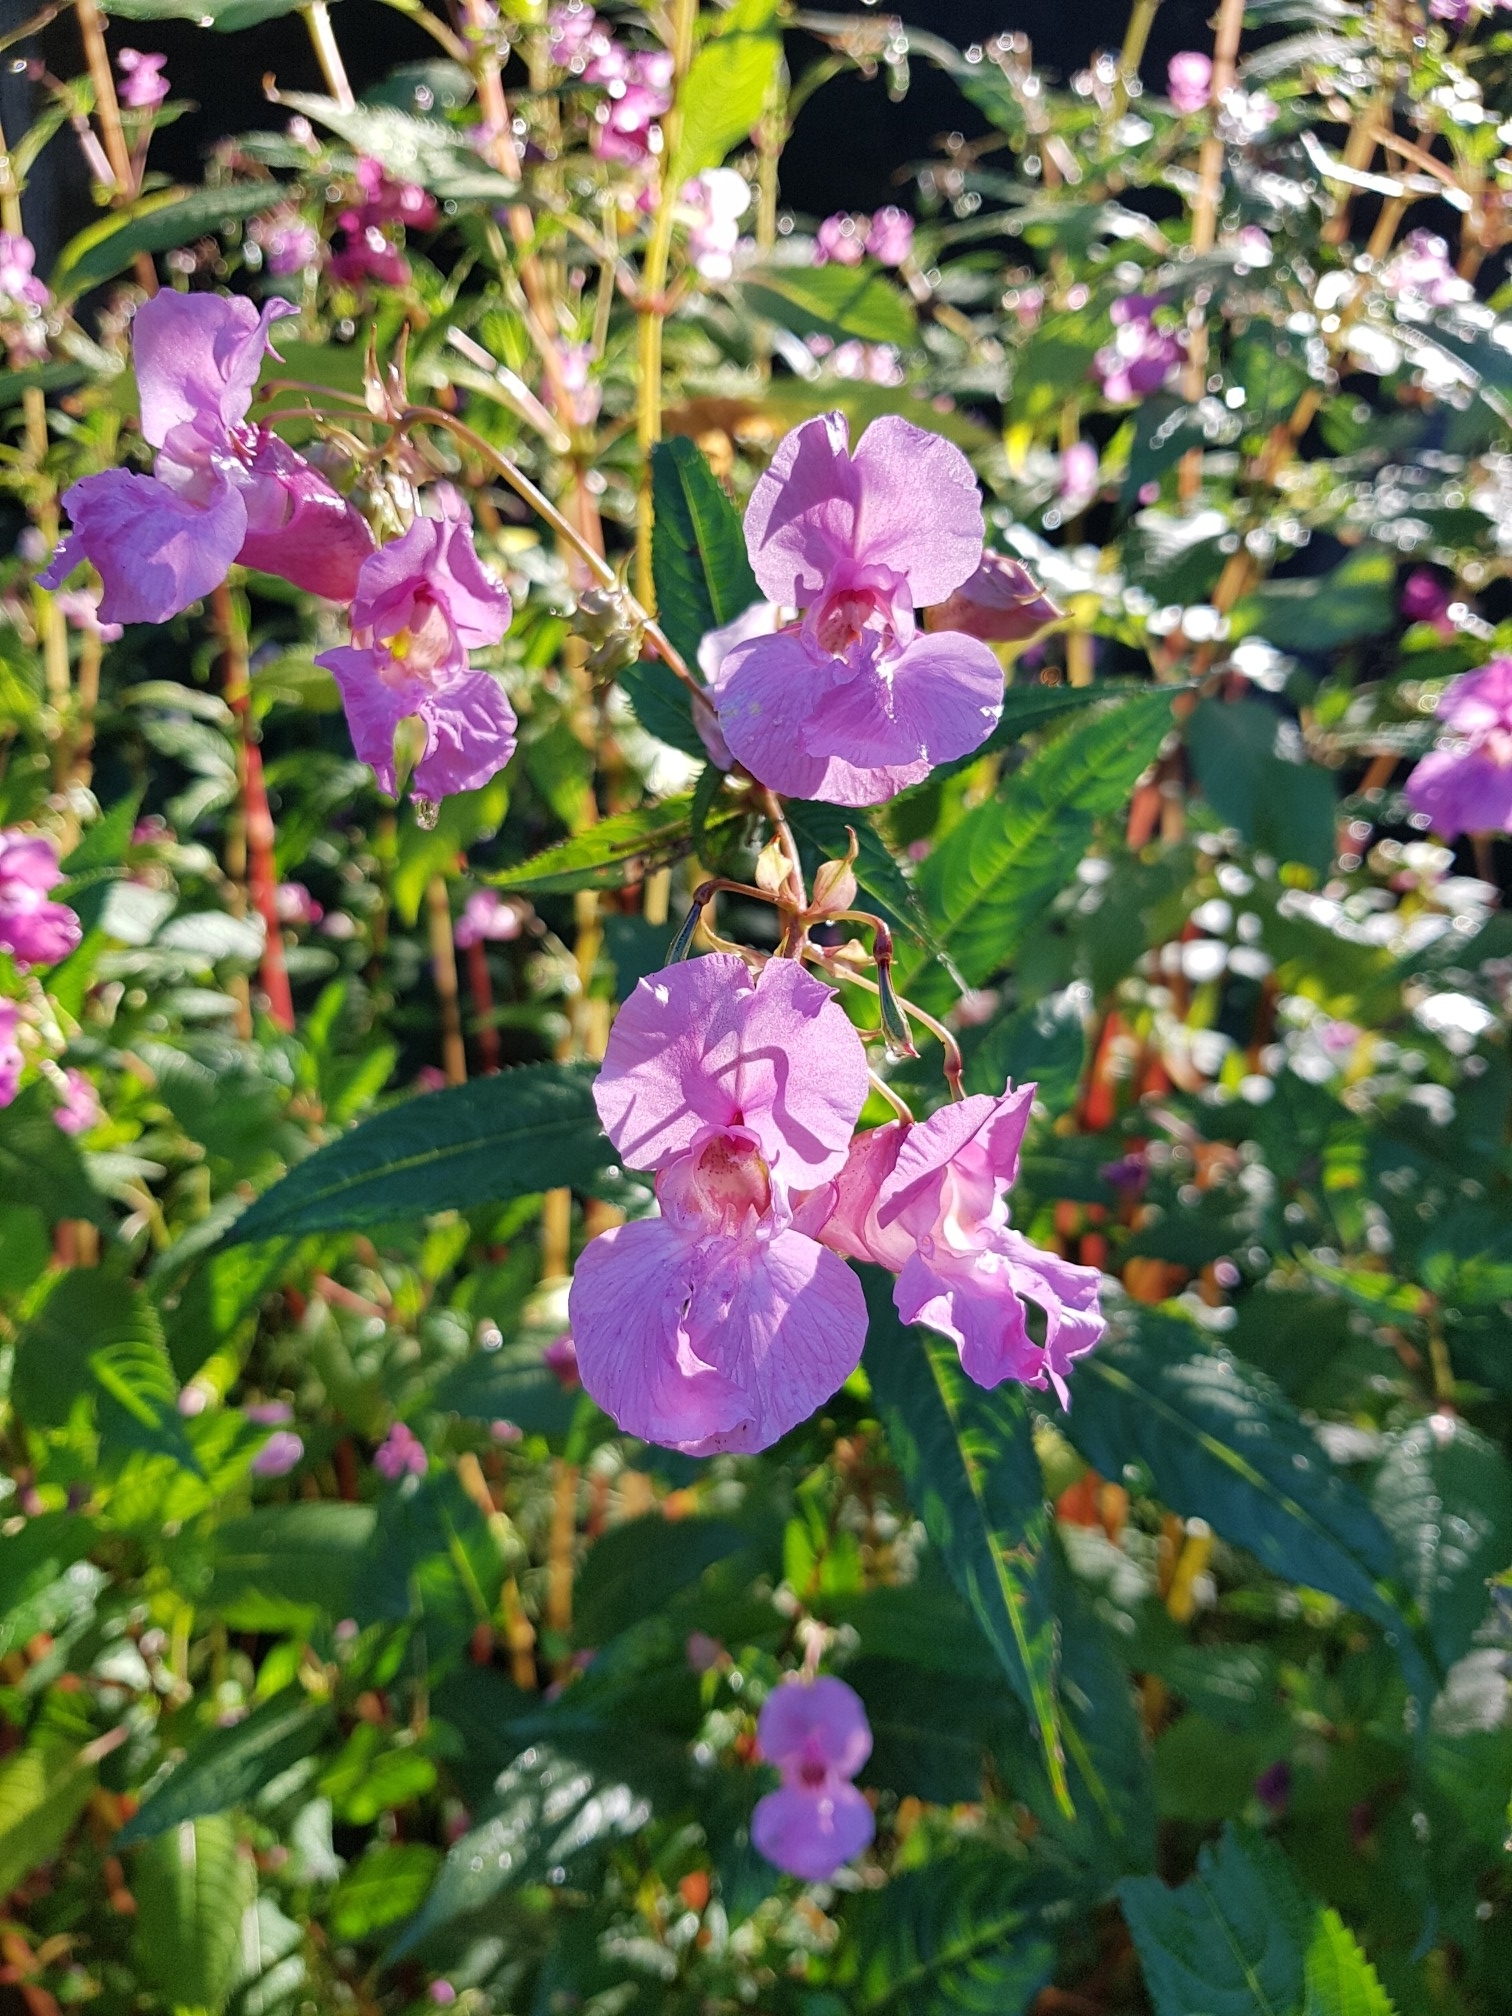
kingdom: Plantae
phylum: Tracheophyta
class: Magnoliopsida
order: Ericales
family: Balsaminaceae
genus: Impatiens
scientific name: Impatiens glandulifera
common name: Himalayan balsam
